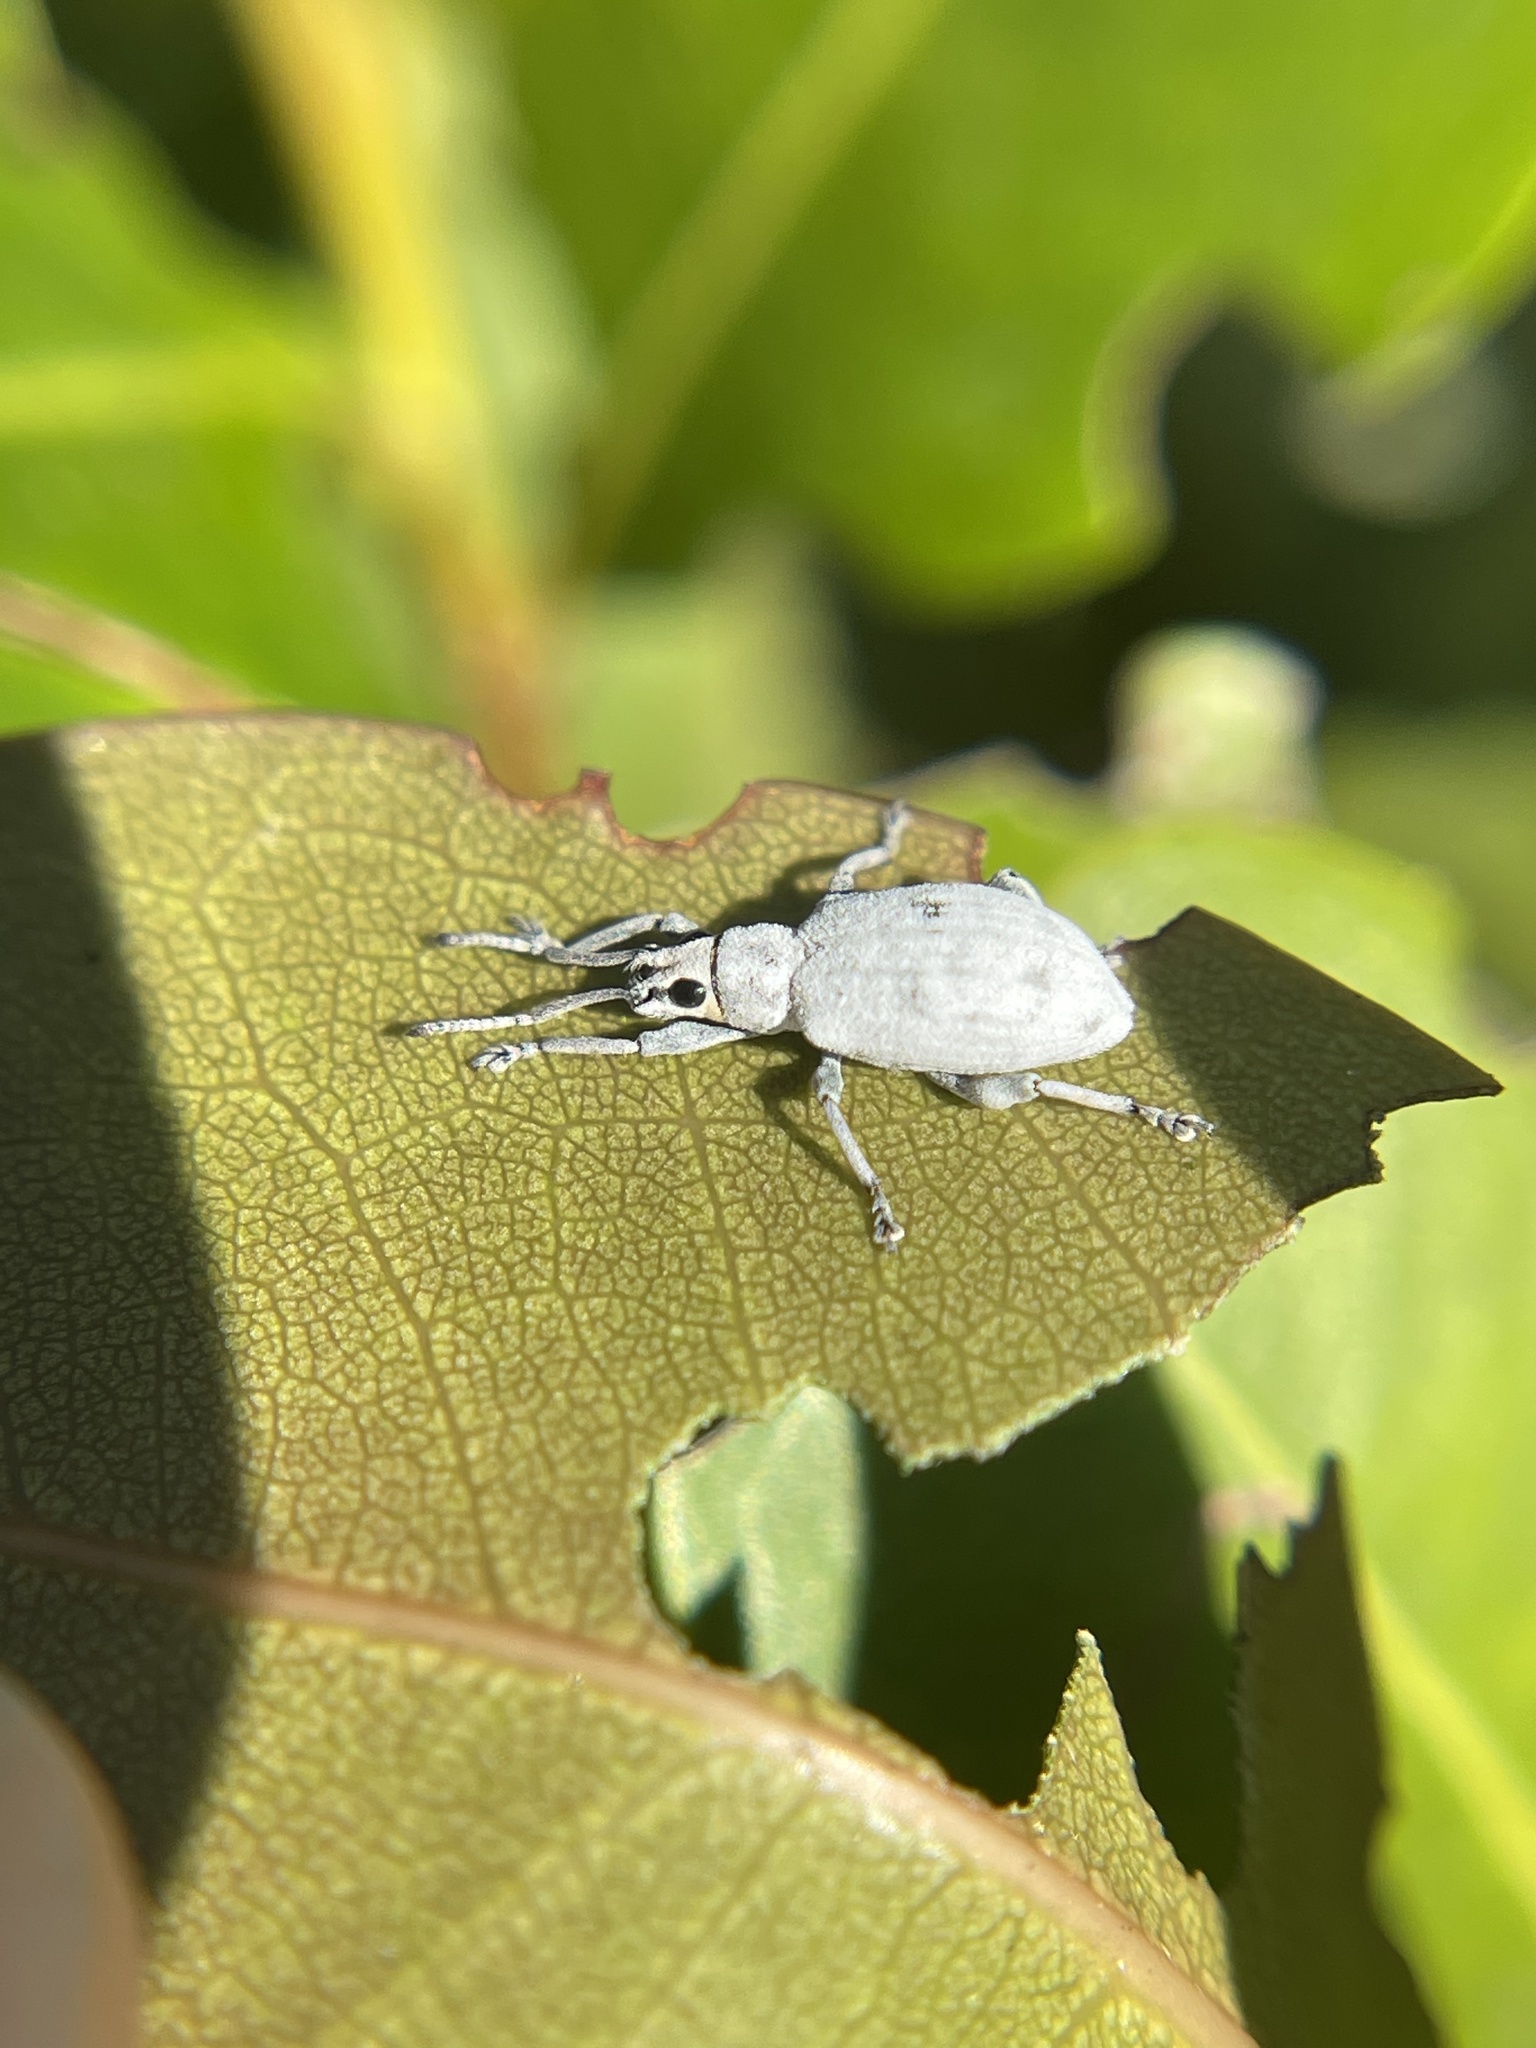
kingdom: Animalia
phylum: Arthropoda
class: Insecta
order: Coleoptera
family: Curculionidae
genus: Myllocerus
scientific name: Myllocerus undecimpustulatus
